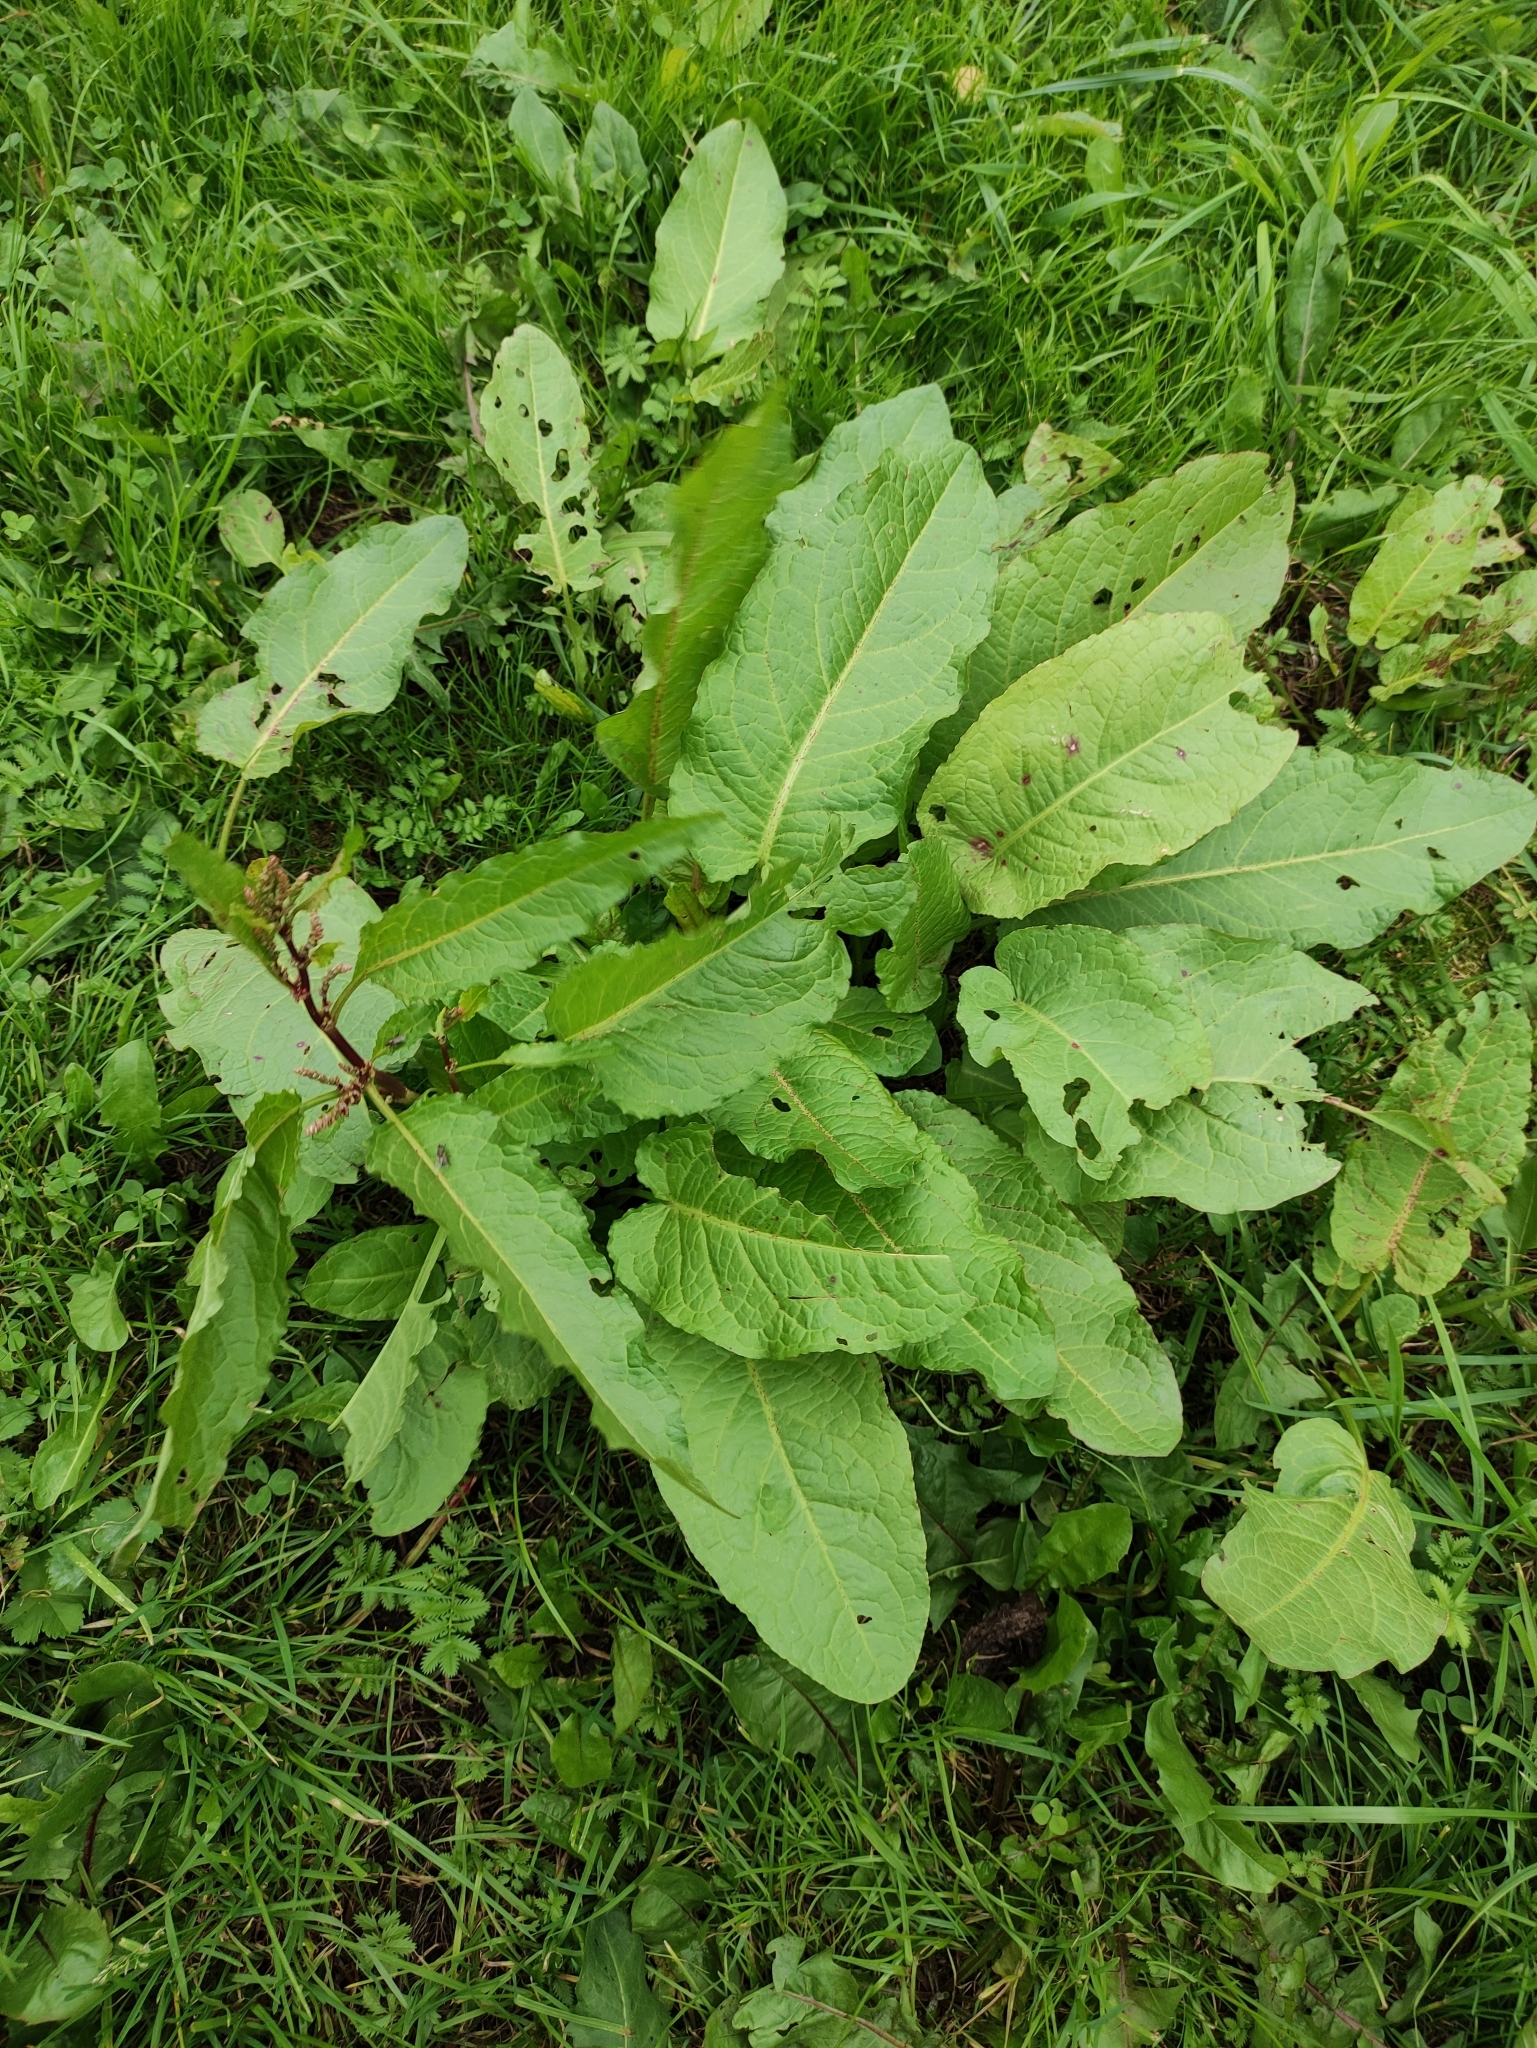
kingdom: Plantae
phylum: Tracheophyta
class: Magnoliopsida
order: Caryophyllales
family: Polygonaceae
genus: Rumex
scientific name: Rumex obtusifolius
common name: Bitter dock
